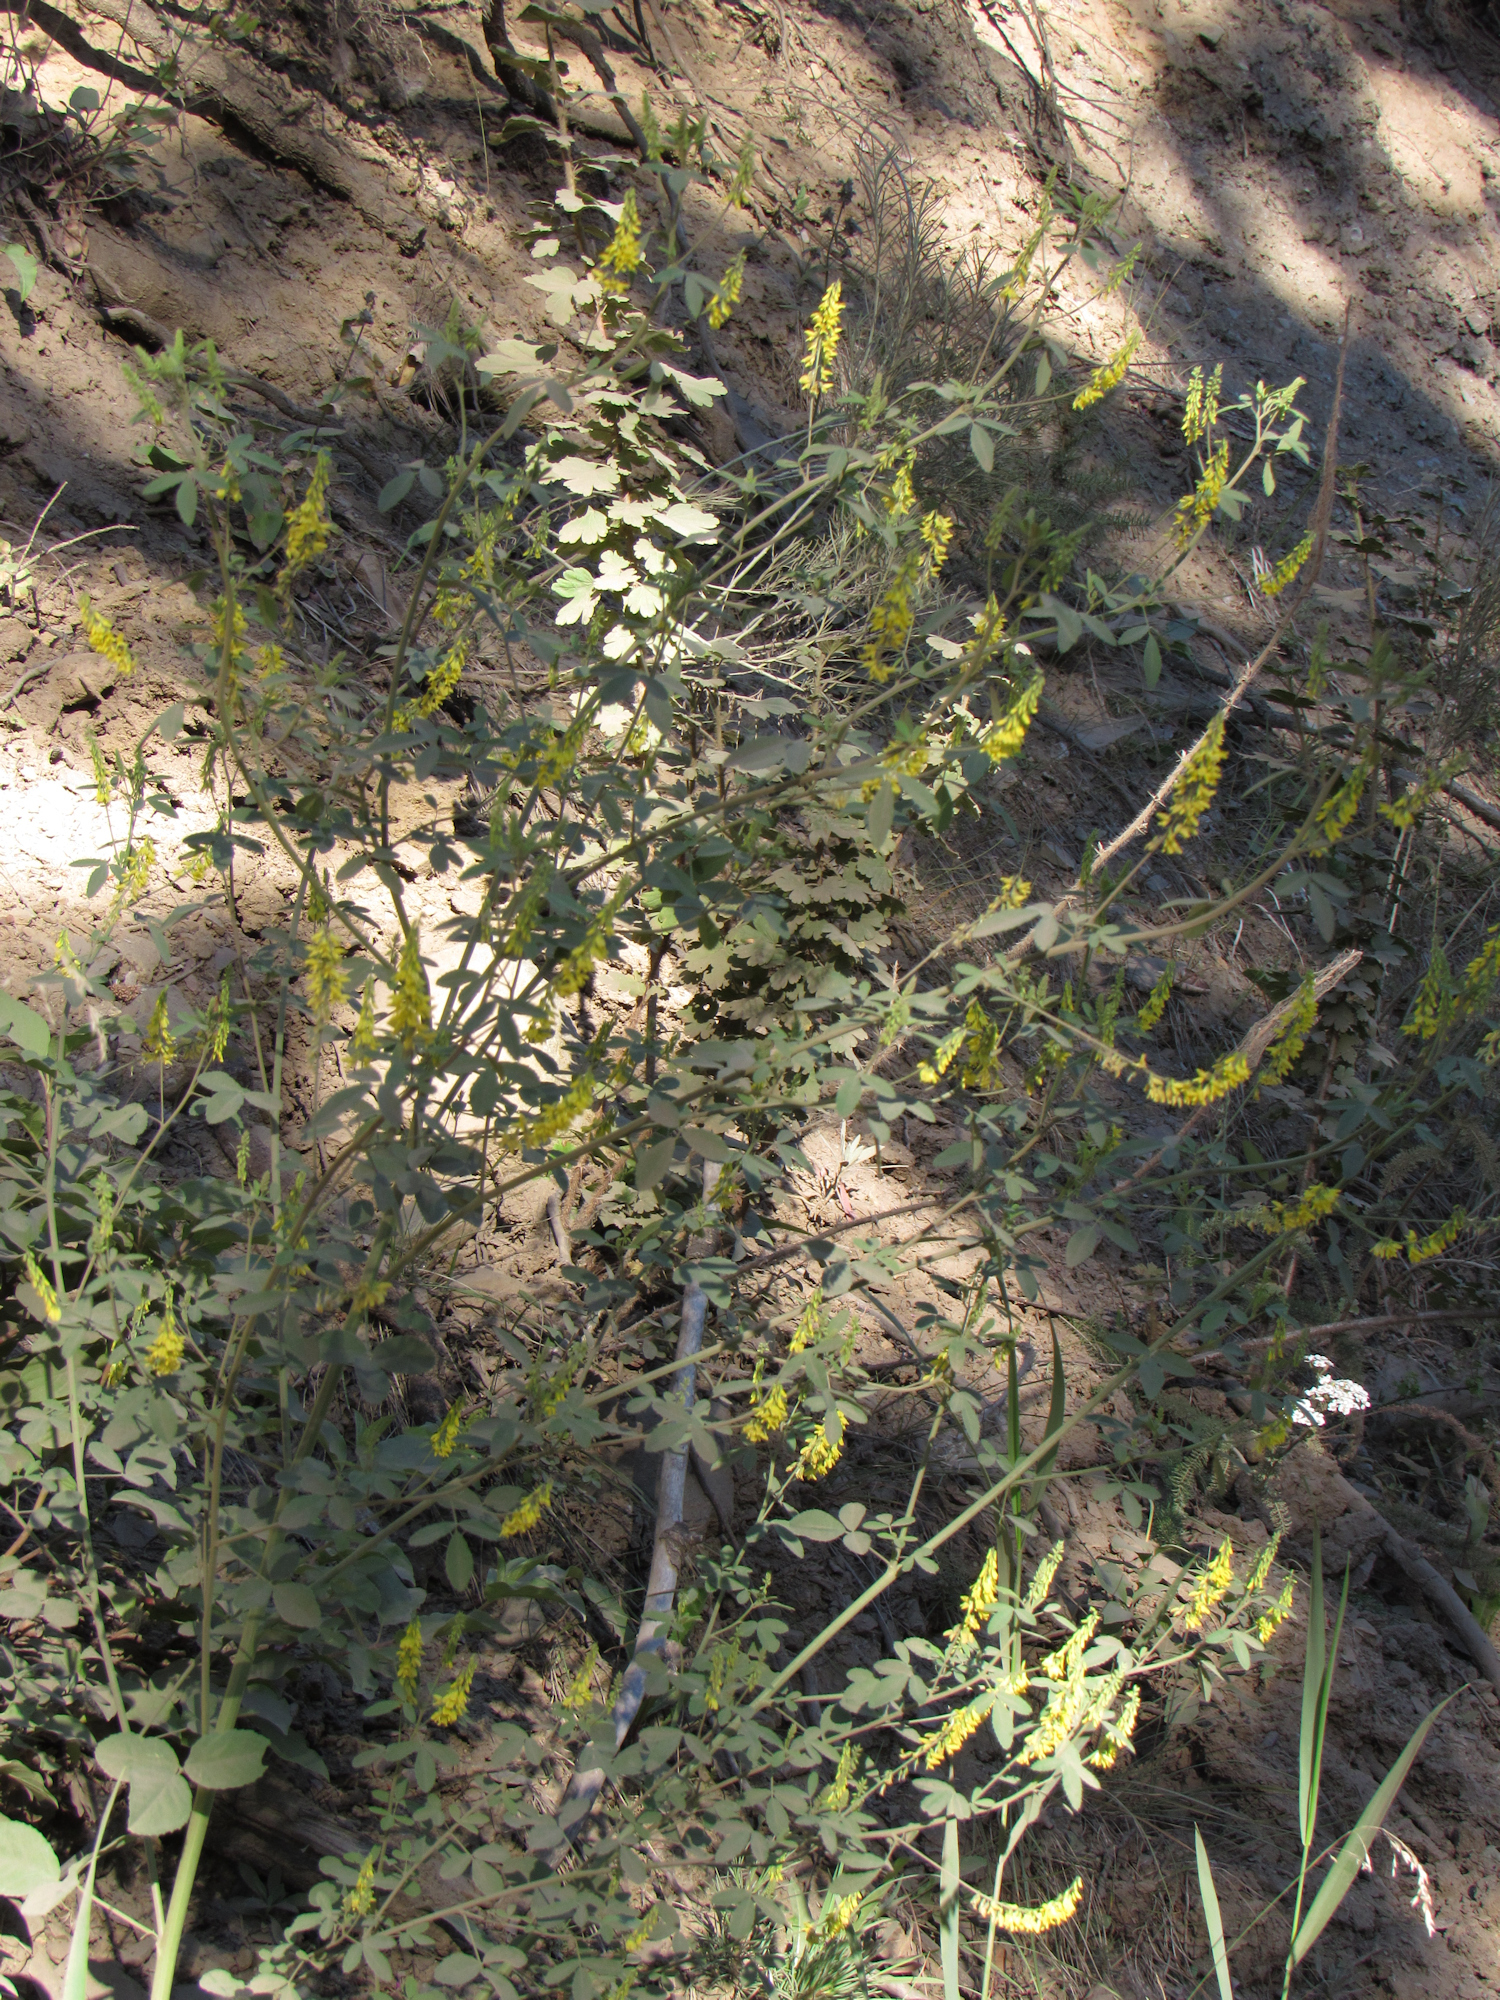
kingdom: Plantae
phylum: Tracheophyta
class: Magnoliopsida
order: Fabales
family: Fabaceae
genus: Melilotus
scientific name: Melilotus officinalis
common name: Sweetclover
